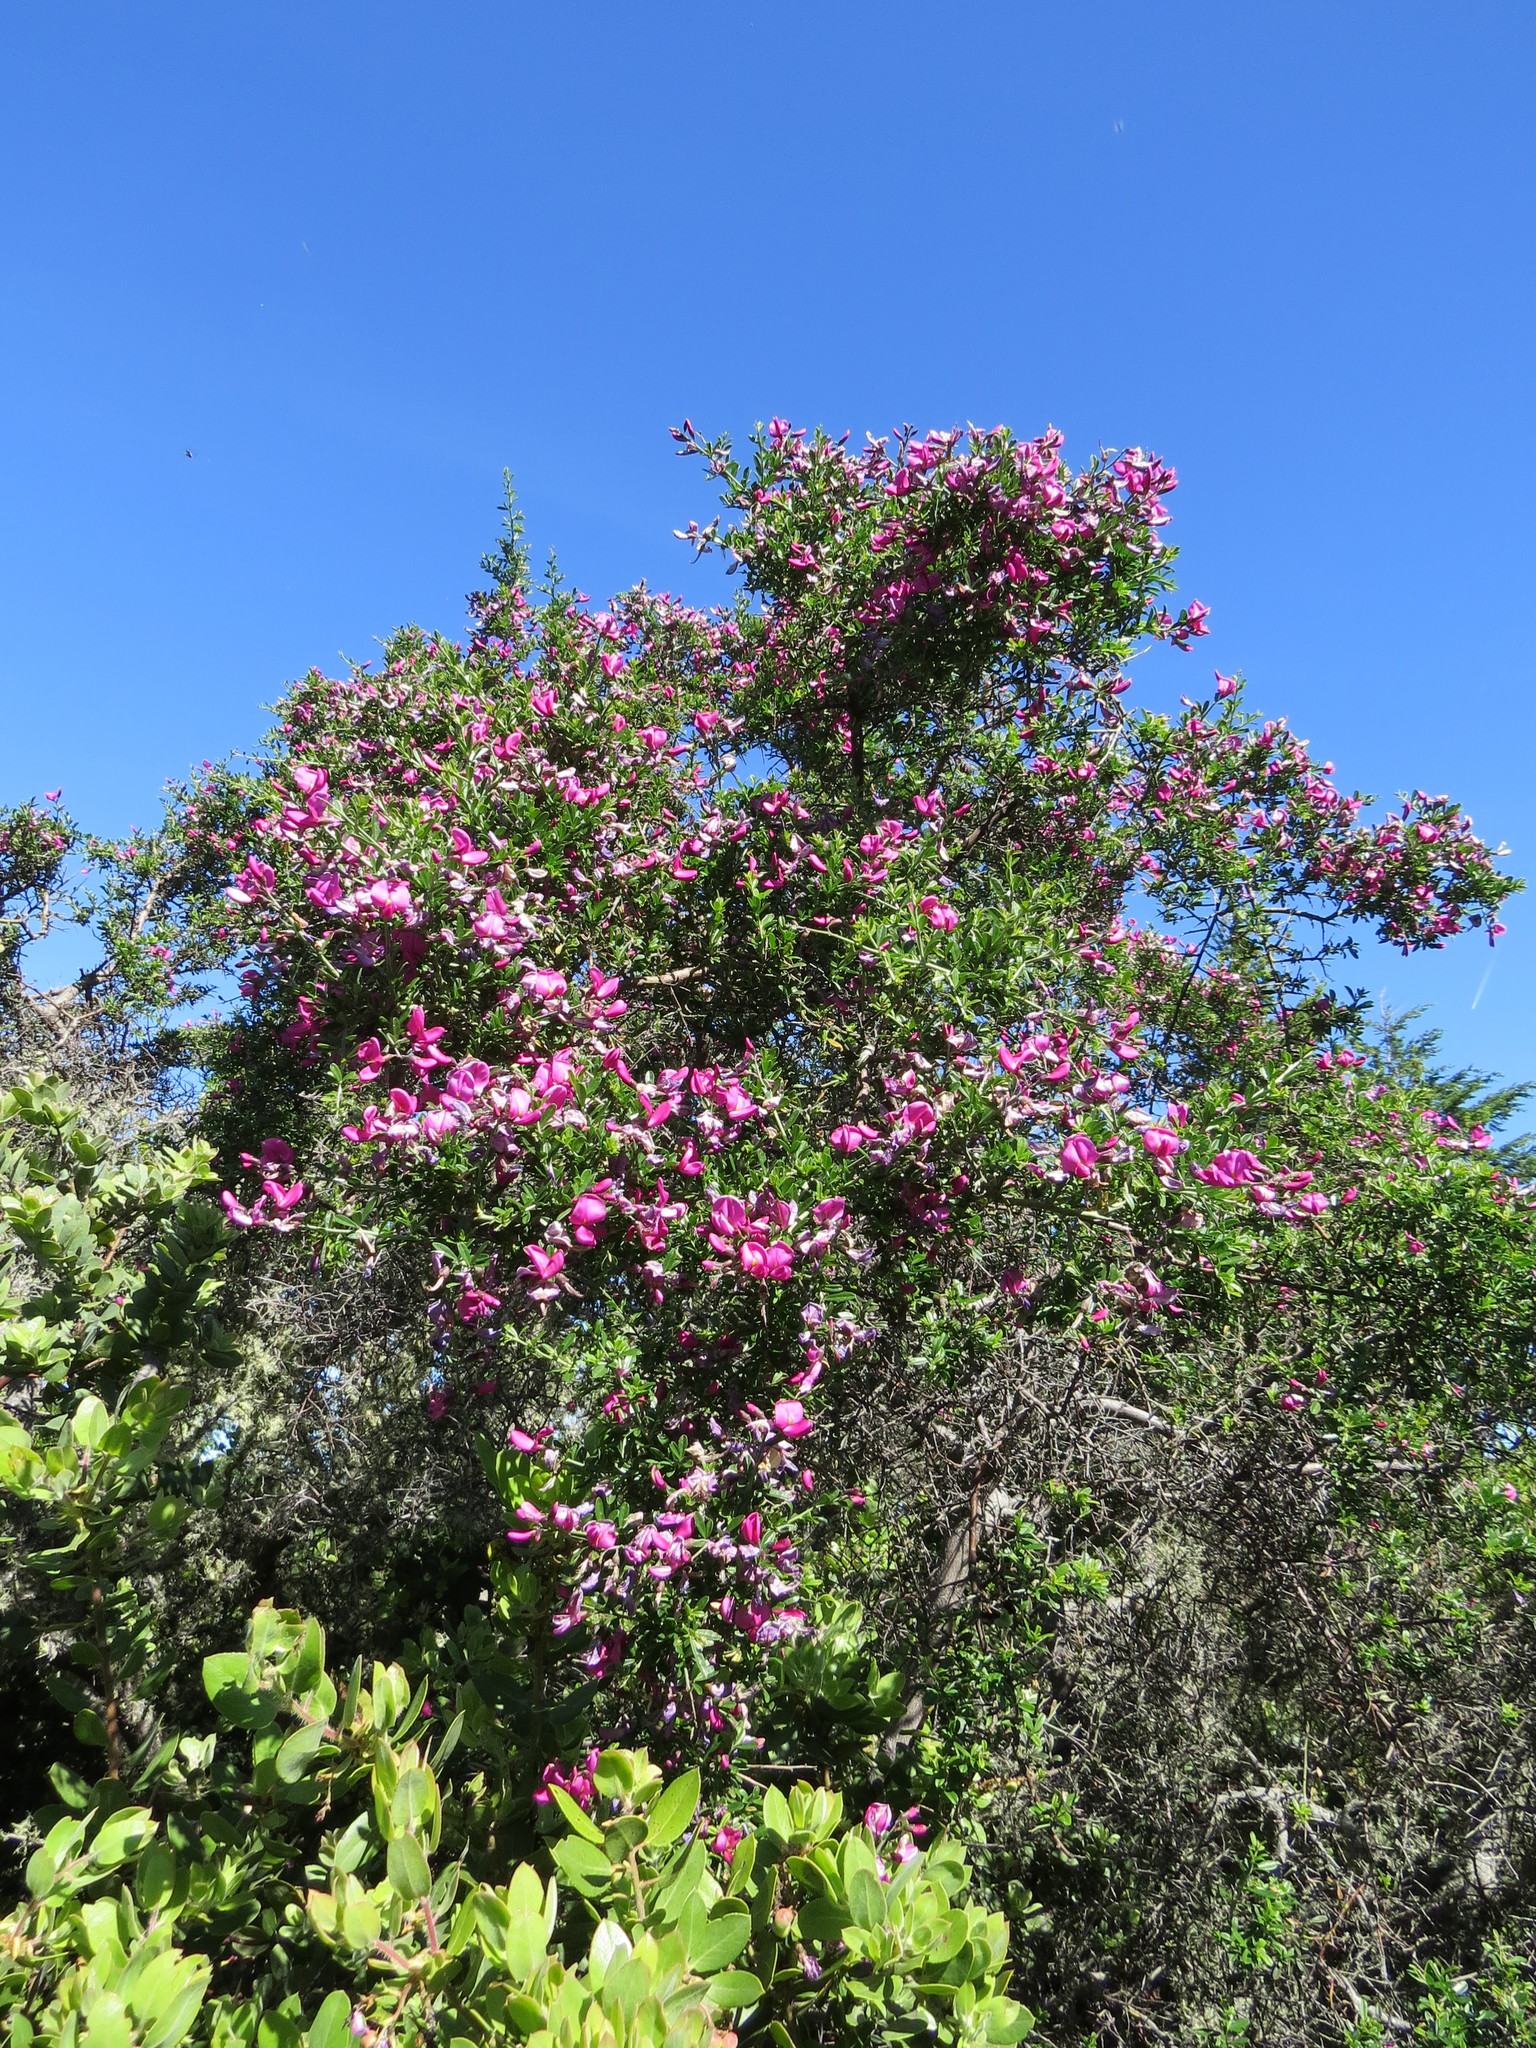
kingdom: Plantae
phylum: Tracheophyta
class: Magnoliopsida
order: Fabales
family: Fabaceae
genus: Pickeringia
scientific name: Pickeringia montana
